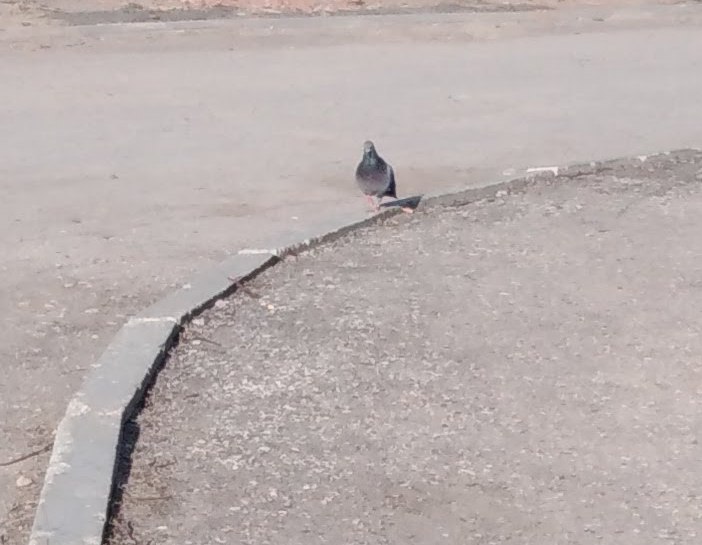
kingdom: Animalia
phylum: Chordata
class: Aves
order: Columbiformes
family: Columbidae
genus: Columba
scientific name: Columba livia
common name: Rock pigeon
